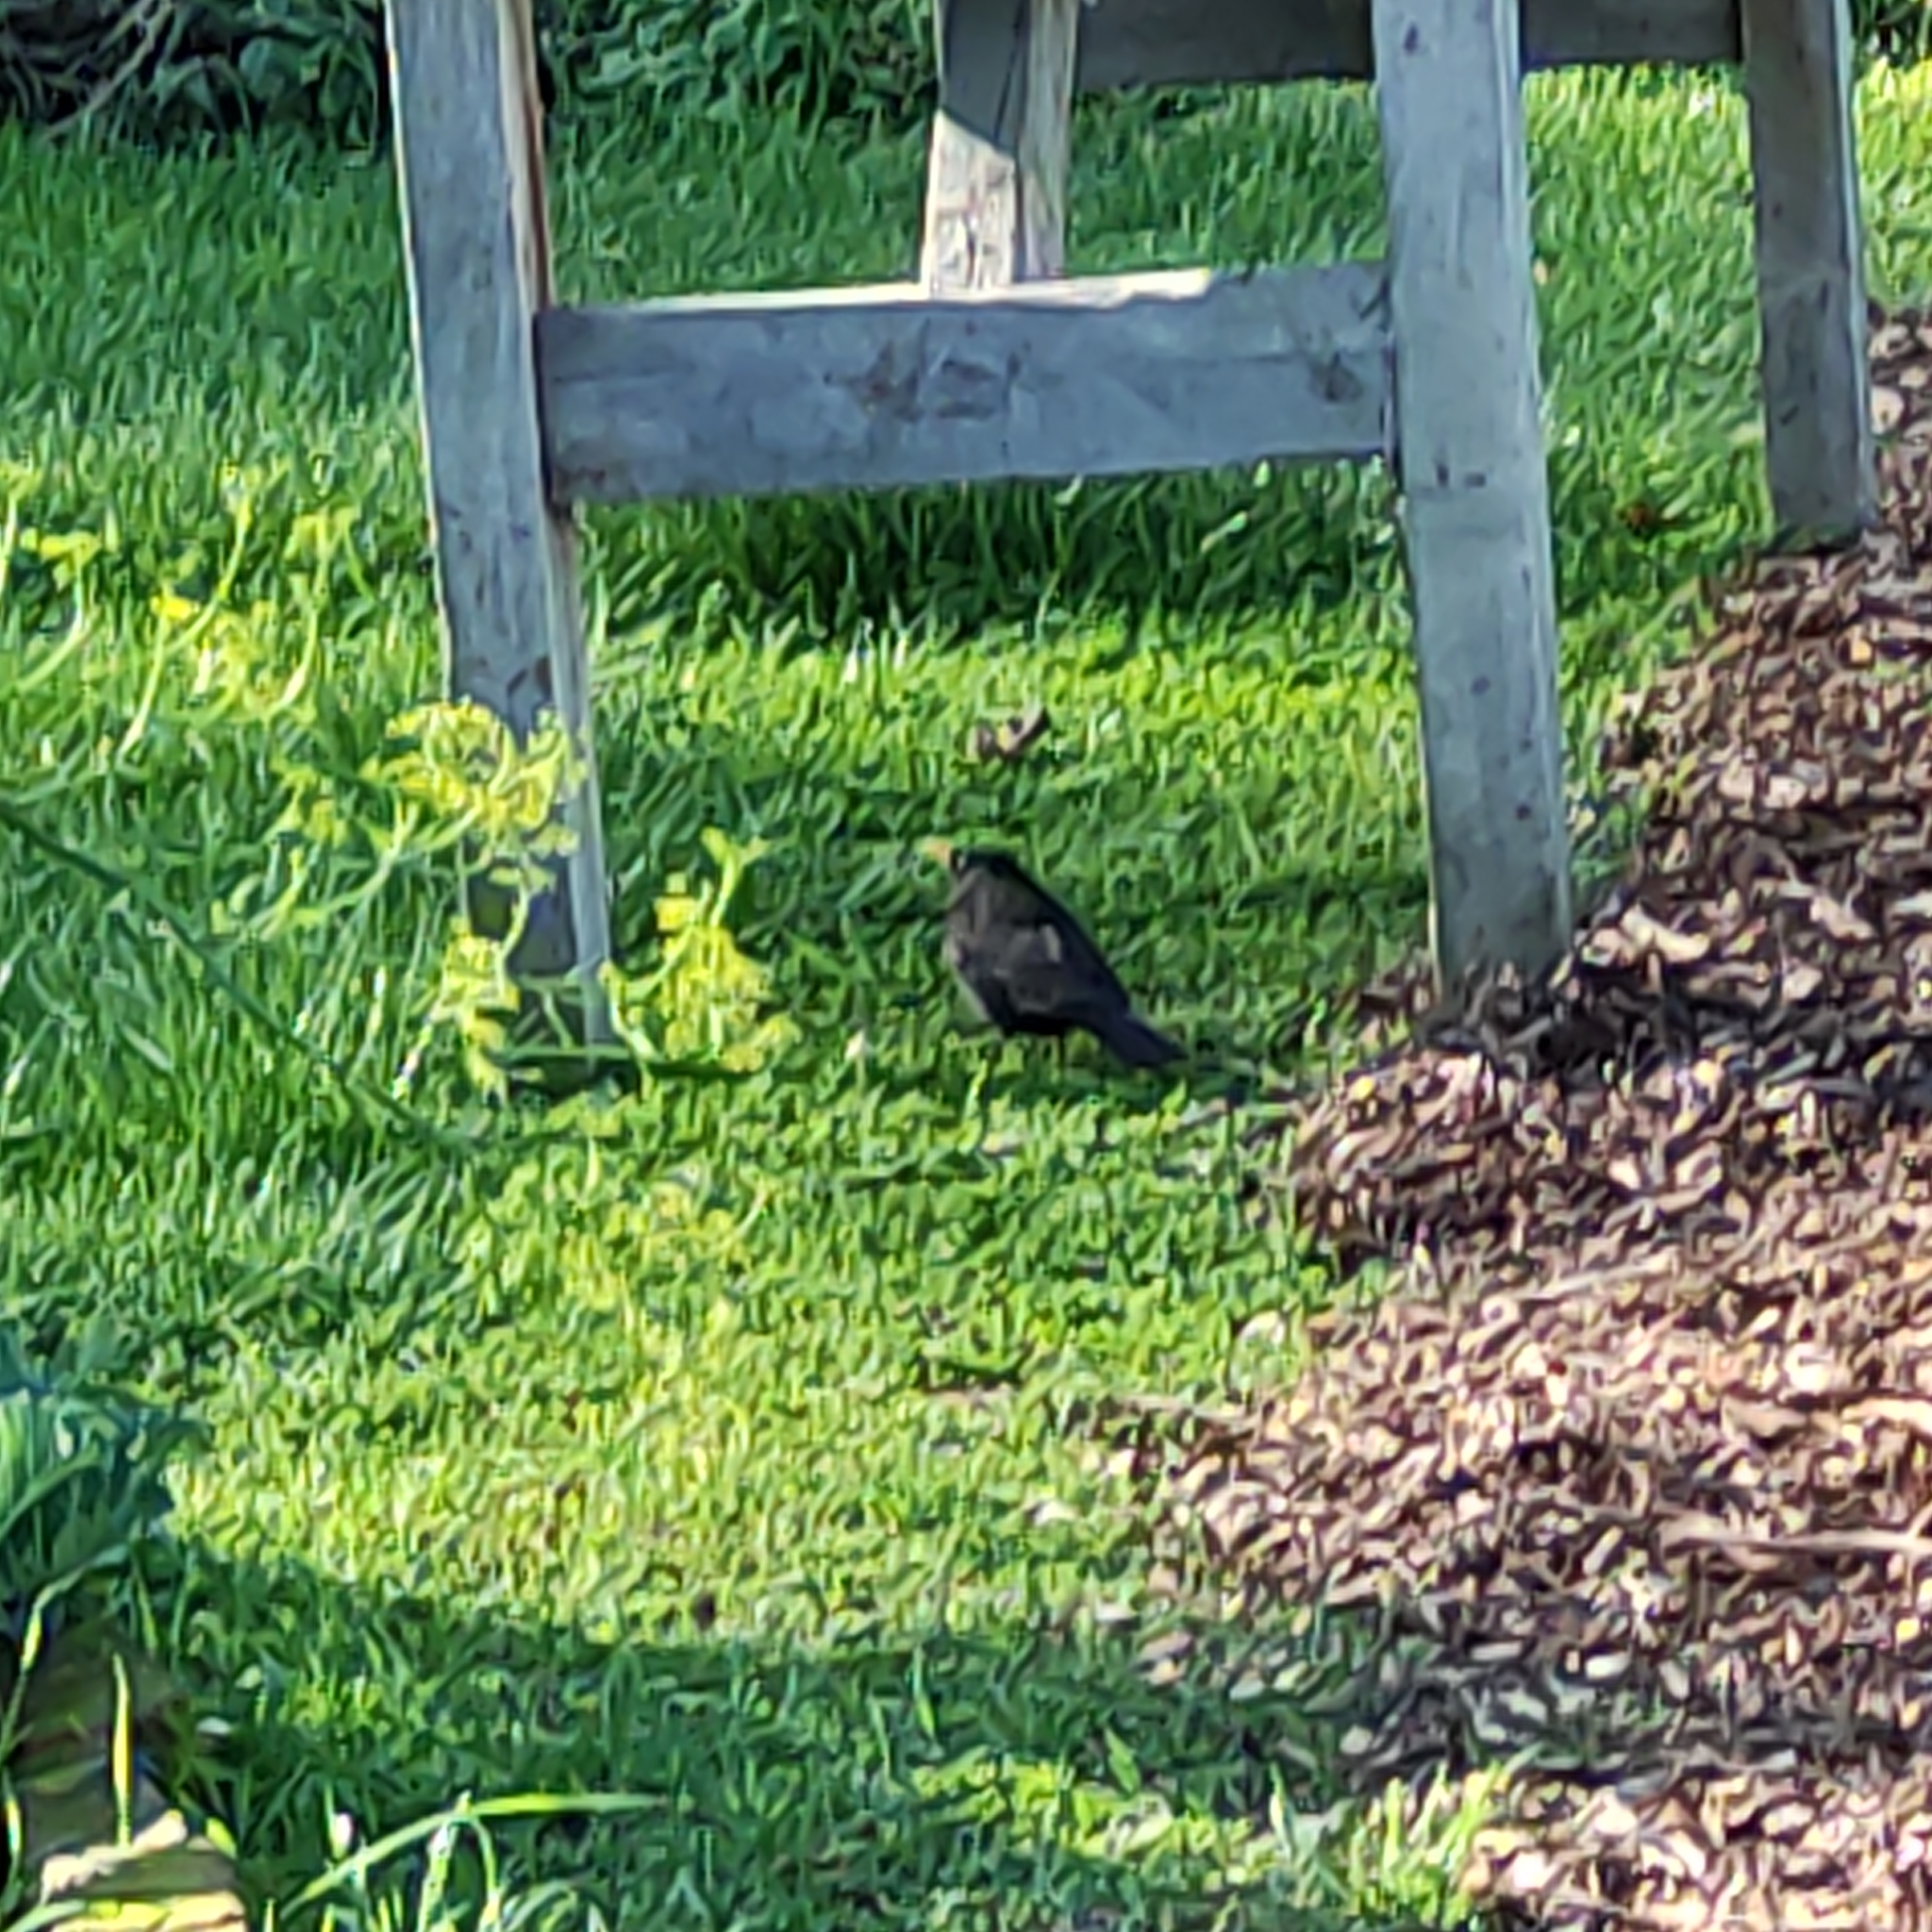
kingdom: Animalia
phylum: Chordata
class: Aves
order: Passeriformes
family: Turdidae
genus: Turdus
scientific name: Turdus merula
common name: Common blackbird
